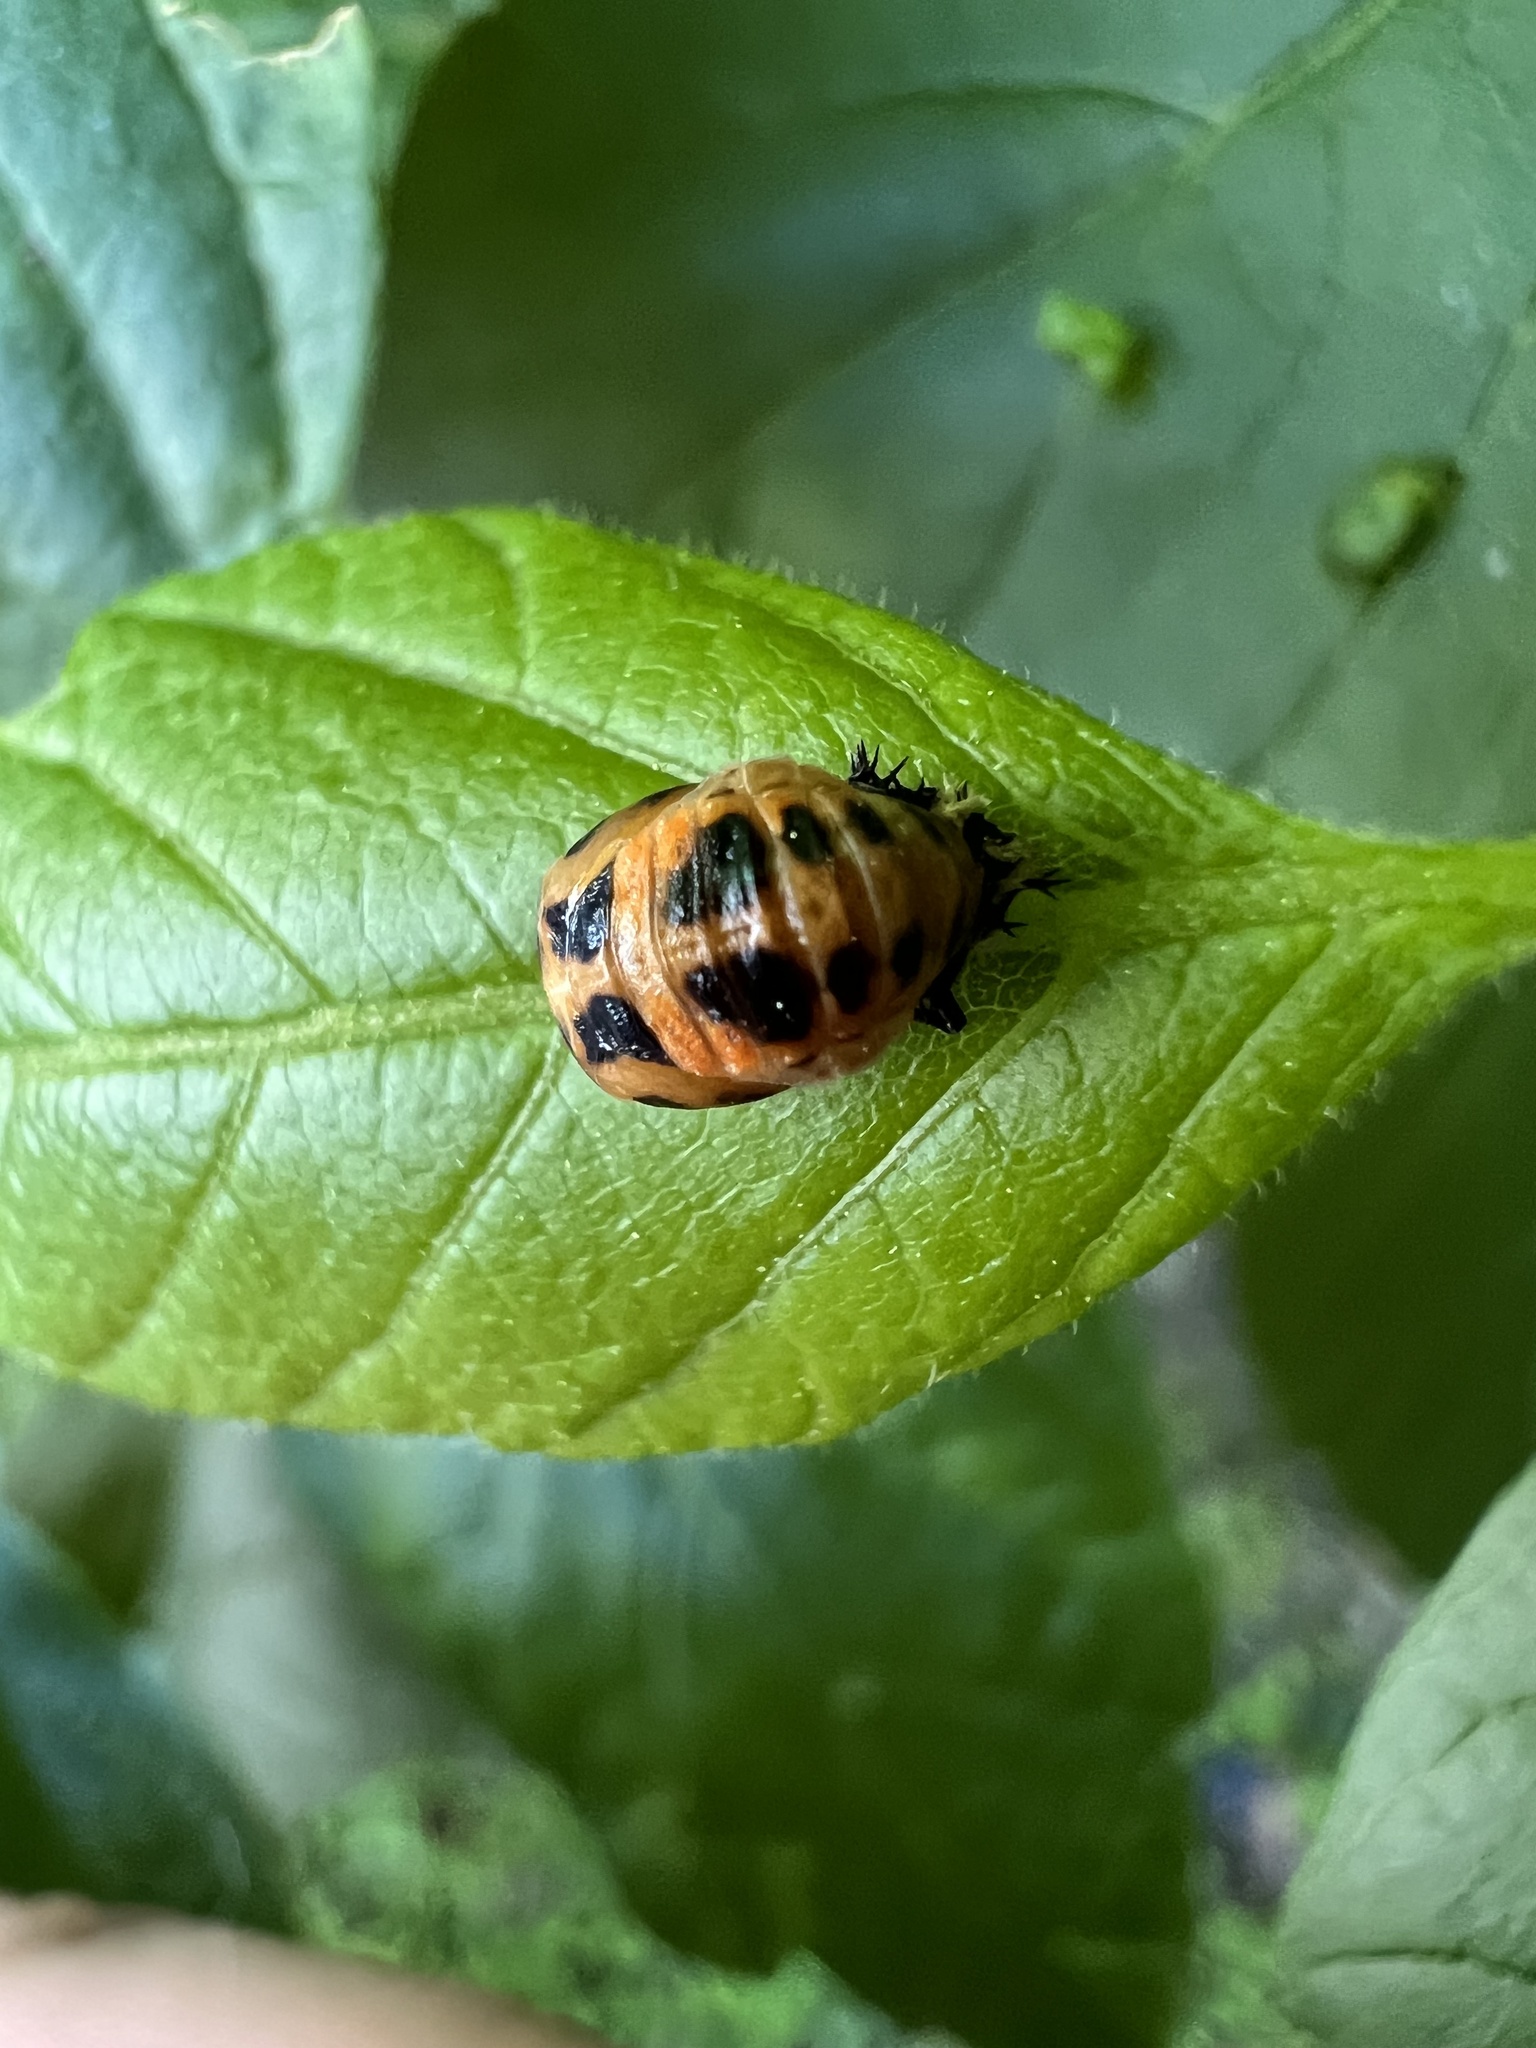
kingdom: Animalia
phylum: Arthropoda
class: Insecta
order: Coleoptera
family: Coccinellidae
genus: Harmonia
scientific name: Harmonia axyridis
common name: Harlequin ladybird
